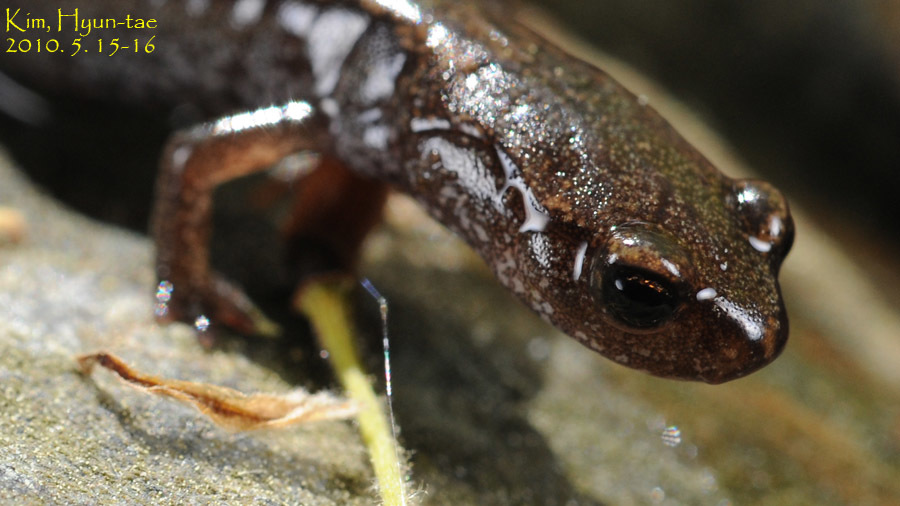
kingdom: Animalia
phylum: Chordata
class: Amphibia
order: Caudata
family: Plethodontidae
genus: Karsenia
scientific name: Karsenia koreana
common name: Korean crevice salamander
